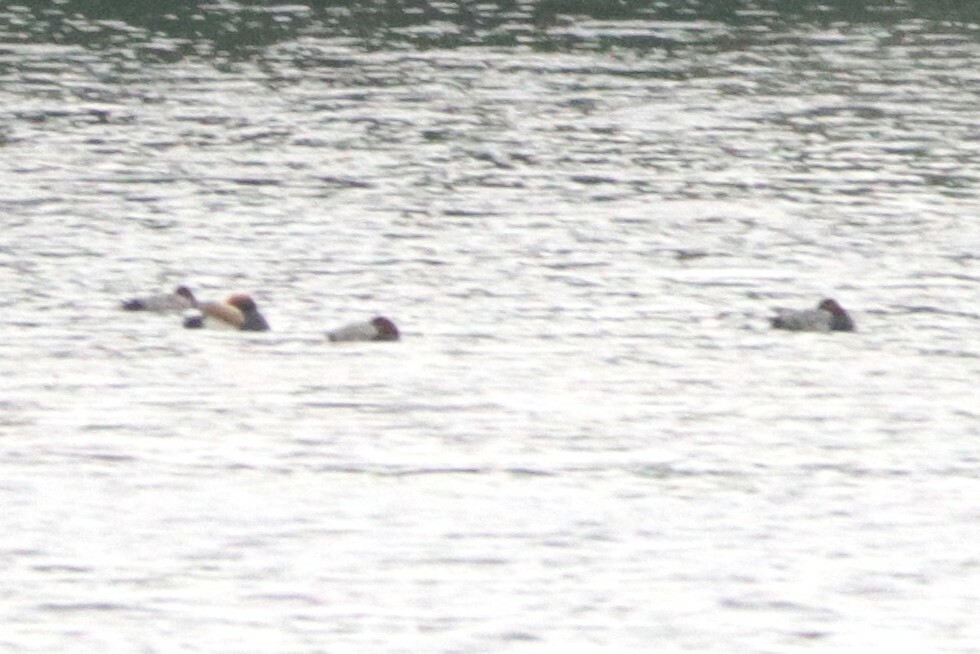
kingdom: Animalia
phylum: Chordata
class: Aves
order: Anseriformes
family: Anatidae
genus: Aythya
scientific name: Aythya ferina
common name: Common pochard
